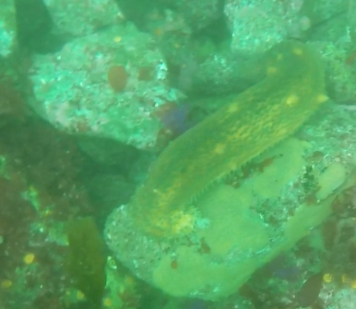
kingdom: Animalia
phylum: Echinodermata
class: Holothuroidea
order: Synallactida
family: Stichopodidae
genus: Apostichopus
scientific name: Apostichopus parvimensis
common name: Warty sea cucumber
